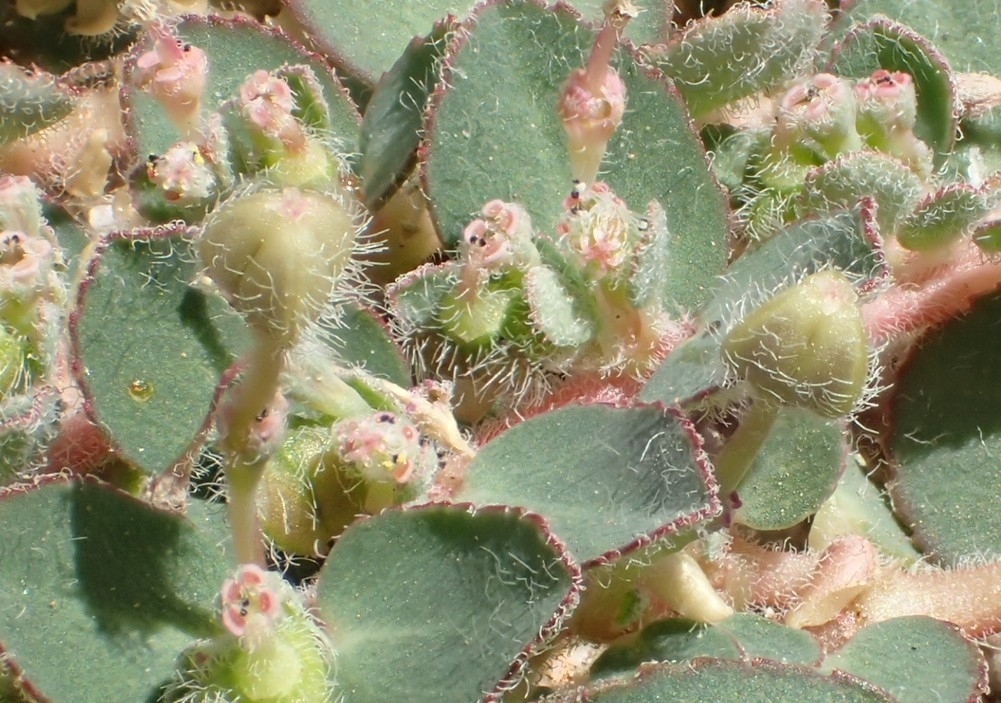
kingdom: Plantae
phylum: Tracheophyta
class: Magnoliopsida
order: Malpighiales
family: Euphorbiaceae
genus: Euphorbia
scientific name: Euphorbia prostrata
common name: Prostrate sandmat
